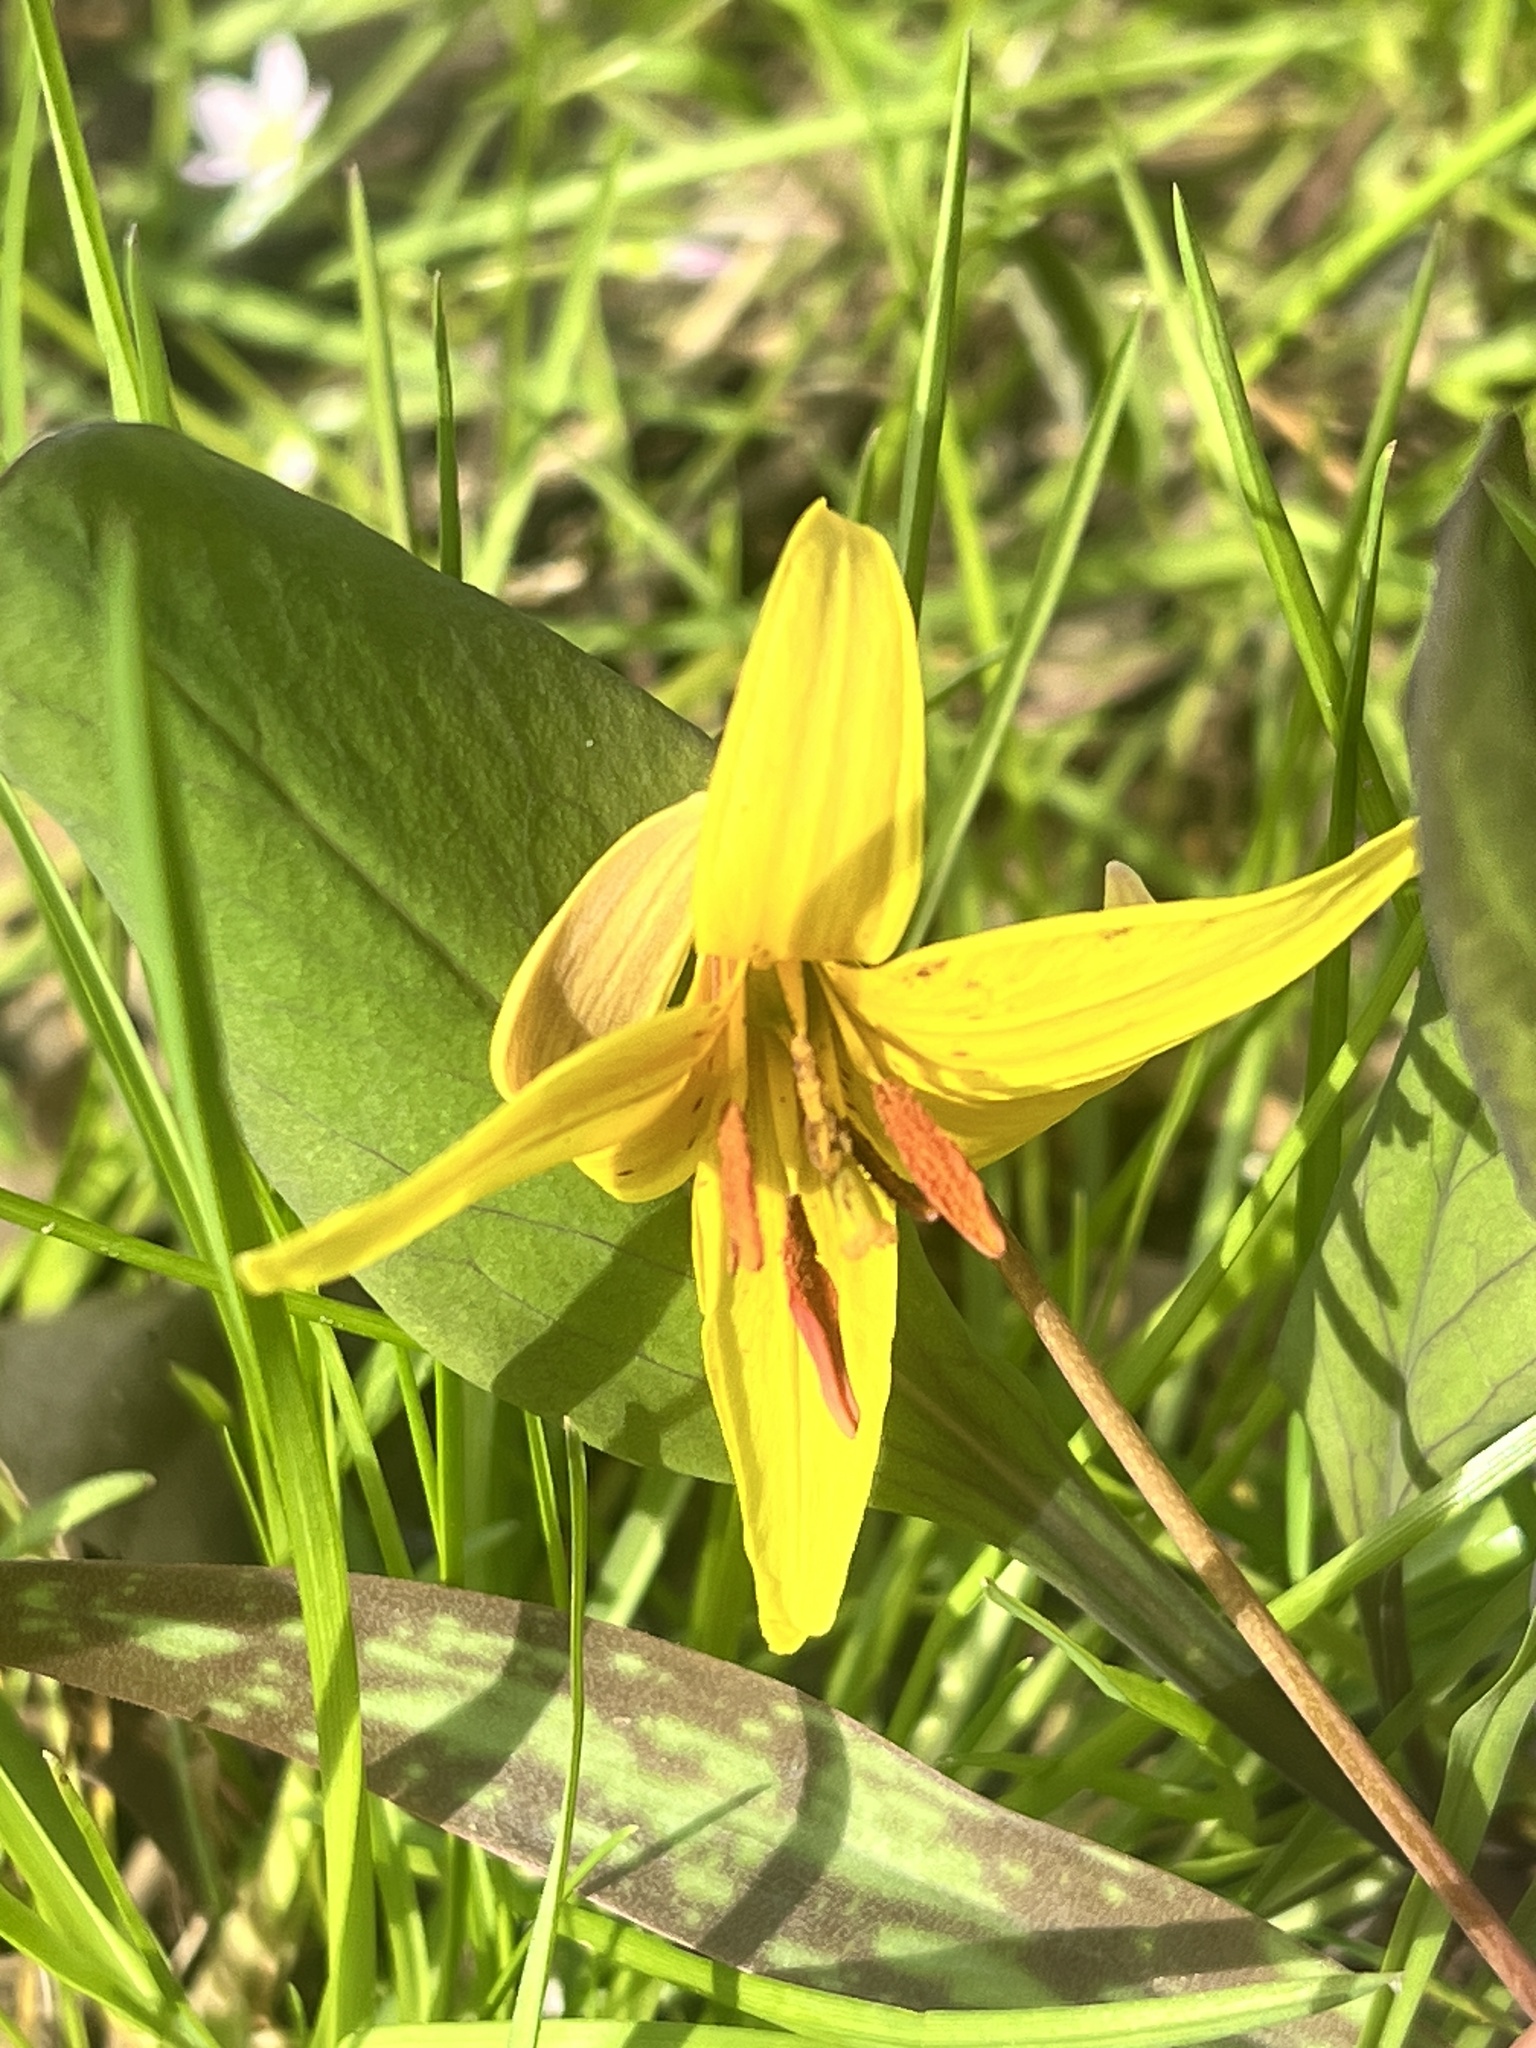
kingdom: Plantae
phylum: Tracheophyta
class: Liliopsida
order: Liliales
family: Liliaceae
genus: Erythronium
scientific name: Erythronium americanum
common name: Yellow adder's-tongue
